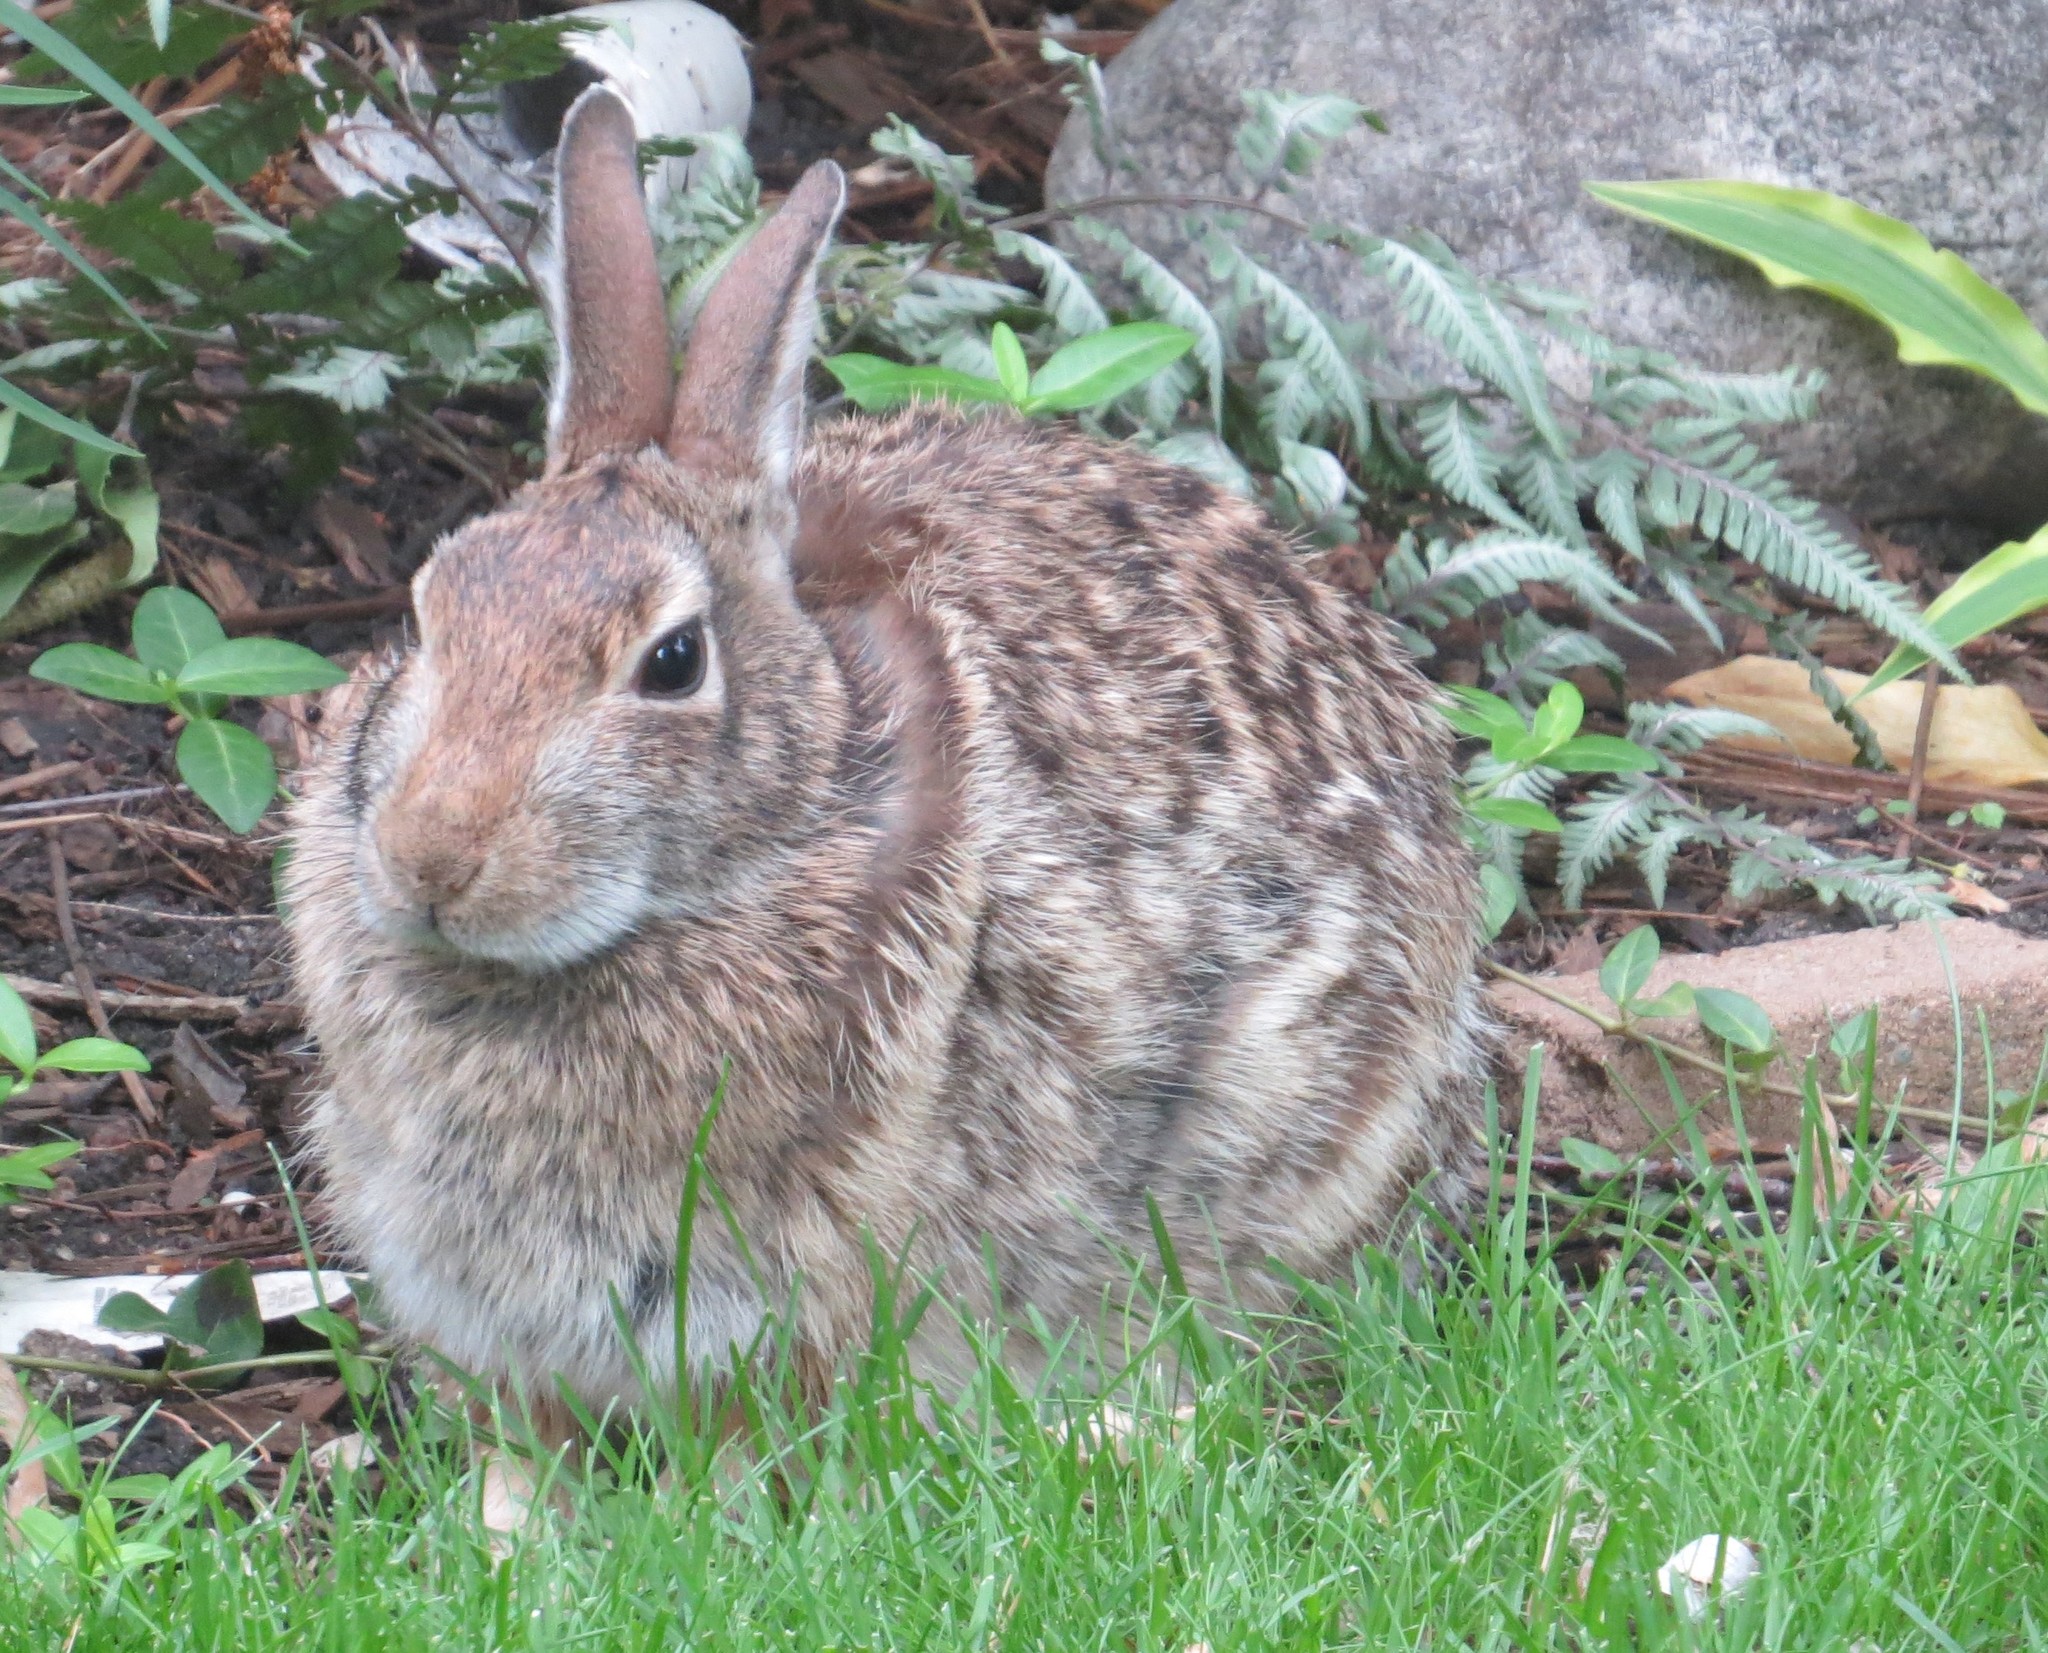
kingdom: Animalia
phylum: Chordata
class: Mammalia
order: Lagomorpha
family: Leporidae
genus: Sylvilagus
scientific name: Sylvilagus floridanus
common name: Eastern cottontail
